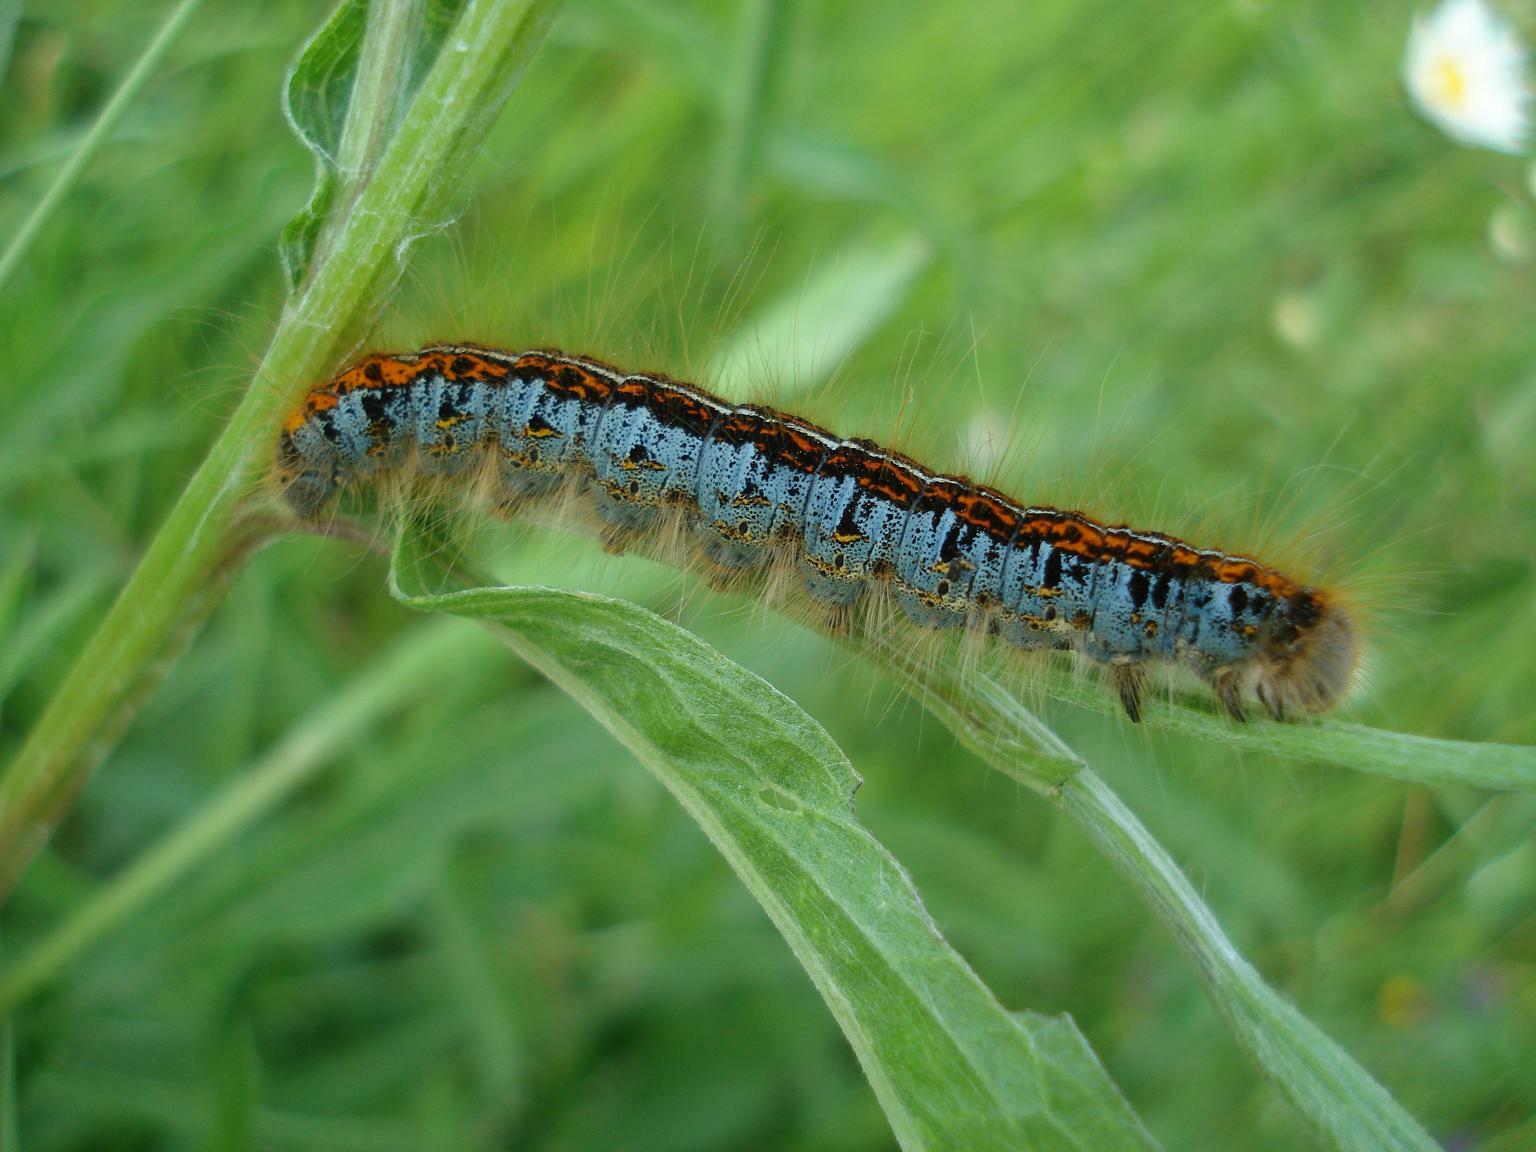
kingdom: Animalia
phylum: Arthropoda
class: Insecta
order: Lepidoptera
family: Lasiocampidae
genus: Malacosoma
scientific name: Malacosoma neustria
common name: The lackey
